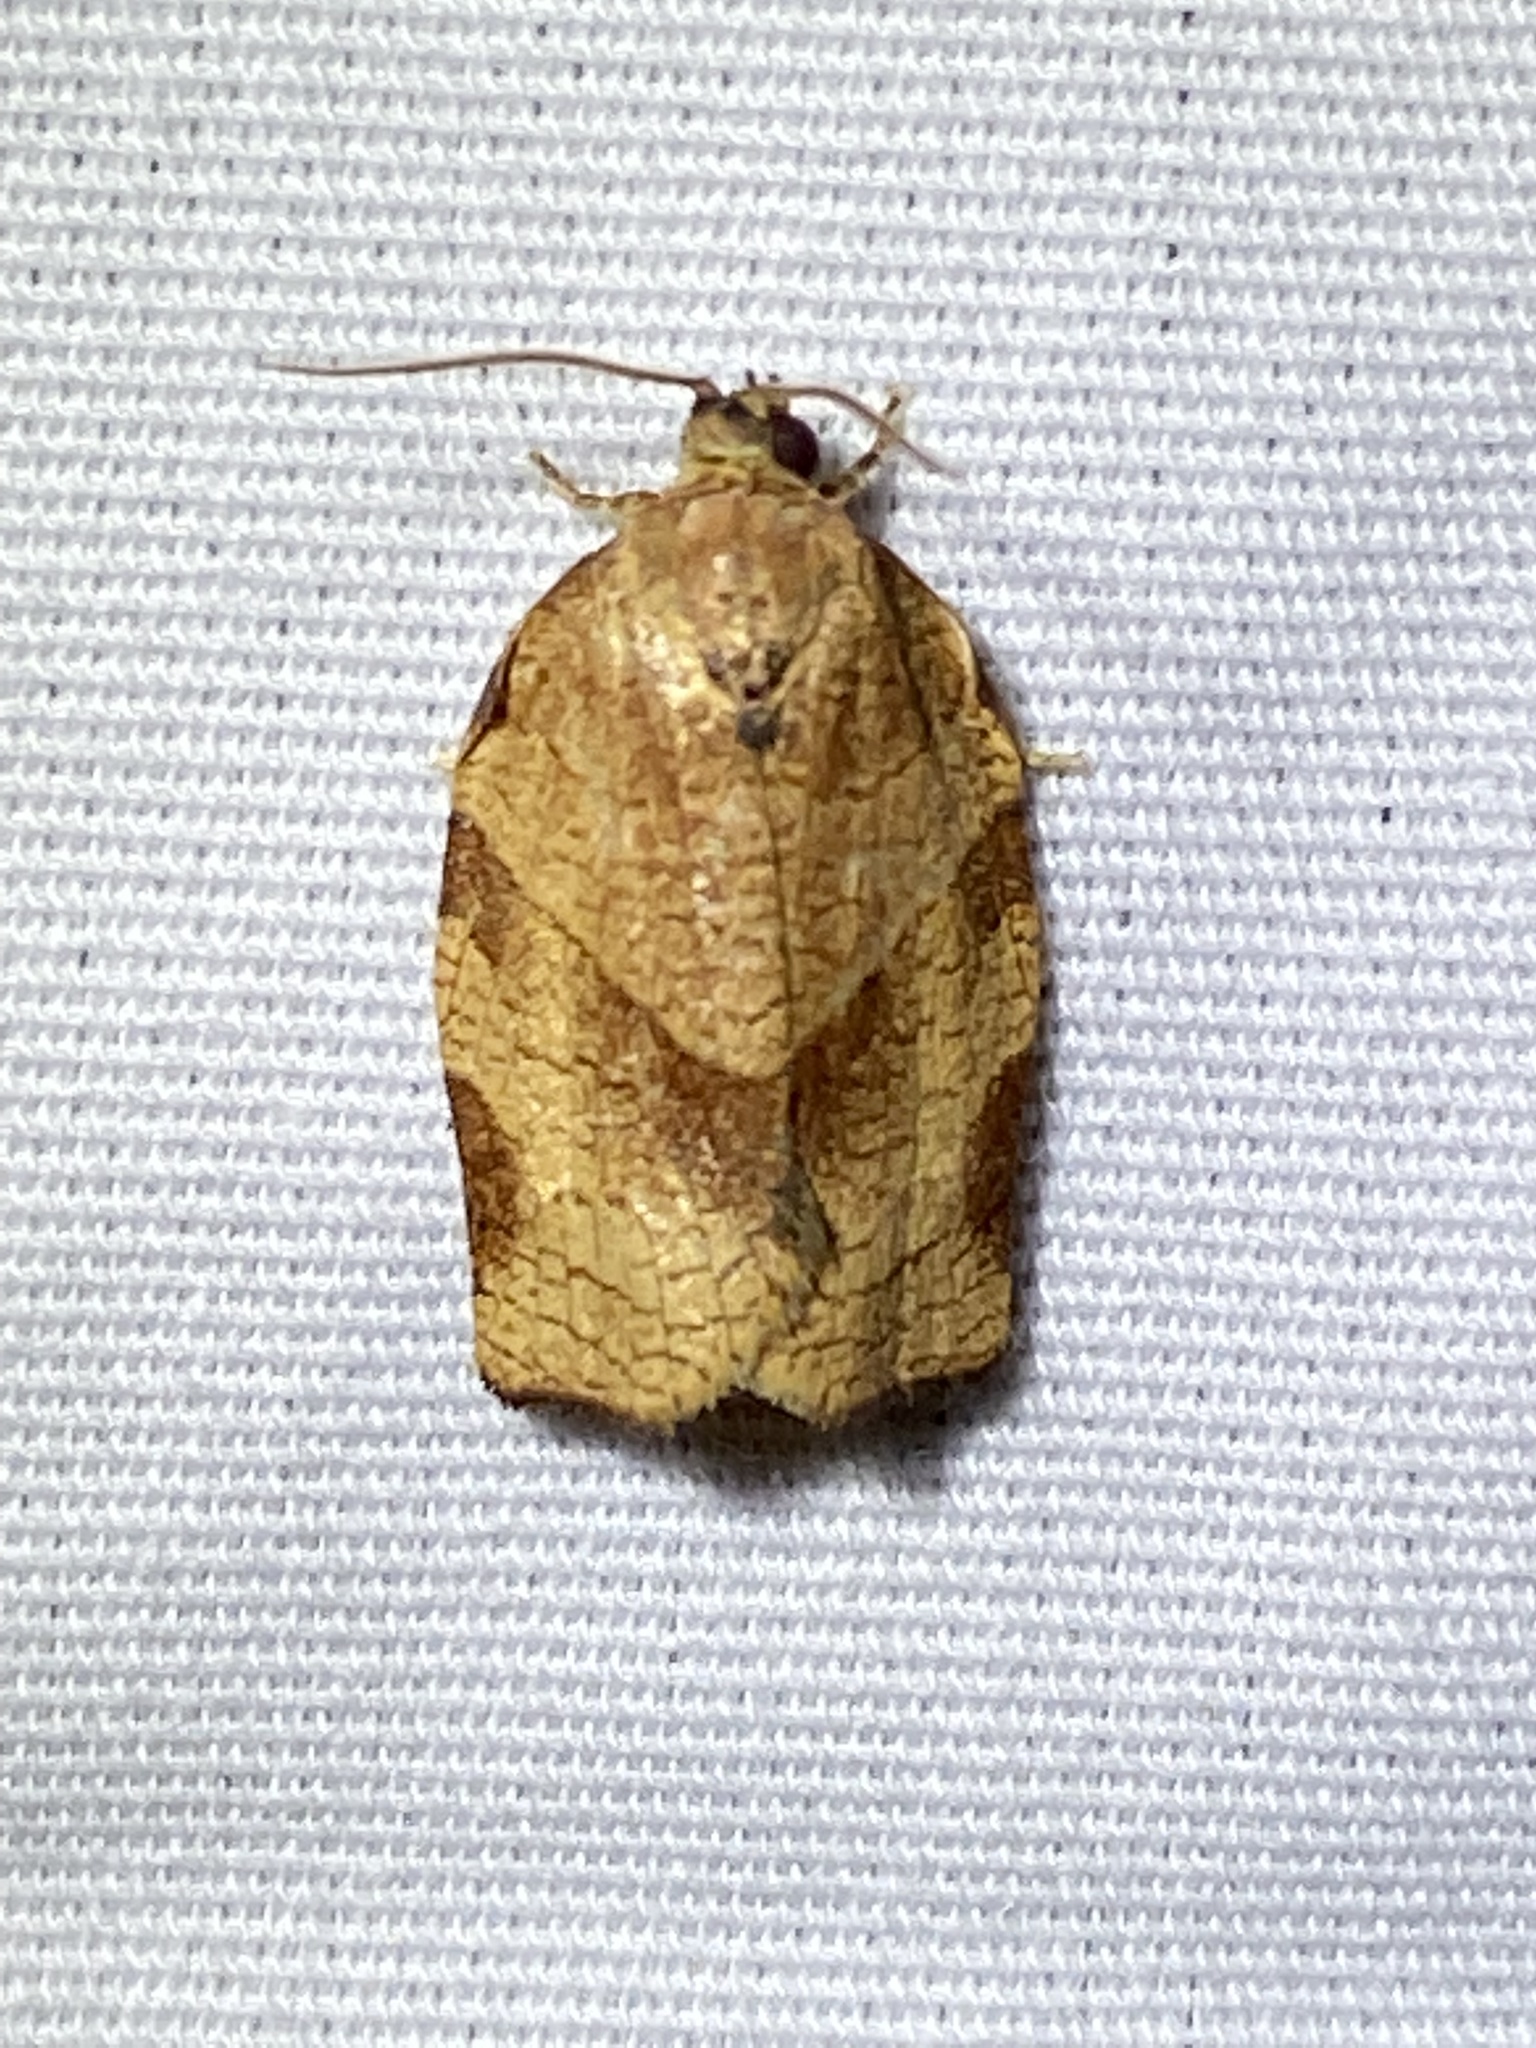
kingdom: Animalia
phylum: Arthropoda
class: Insecta
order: Lepidoptera
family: Tortricidae
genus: Choristoneura
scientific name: Choristoneura rosaceana
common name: Oblique-banded leafroller moth
